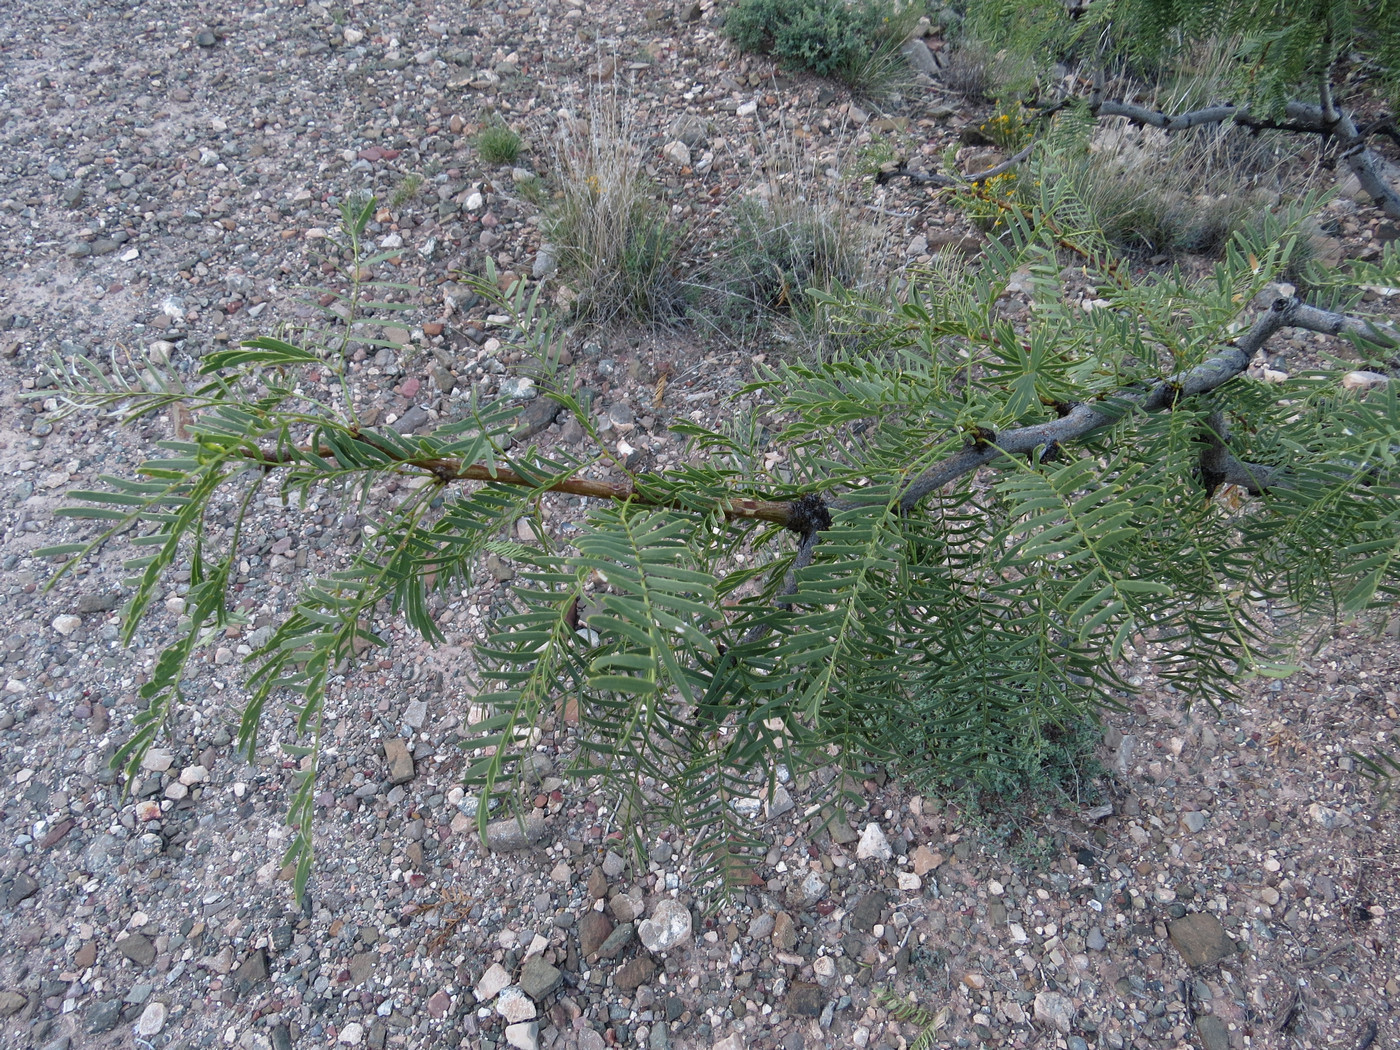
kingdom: Plantae
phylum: Tracheophyta
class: Magnoliopsida
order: Fabales
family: Fabaceae
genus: Prosopis
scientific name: Prosopis glandulosa
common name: Honey mesquite
